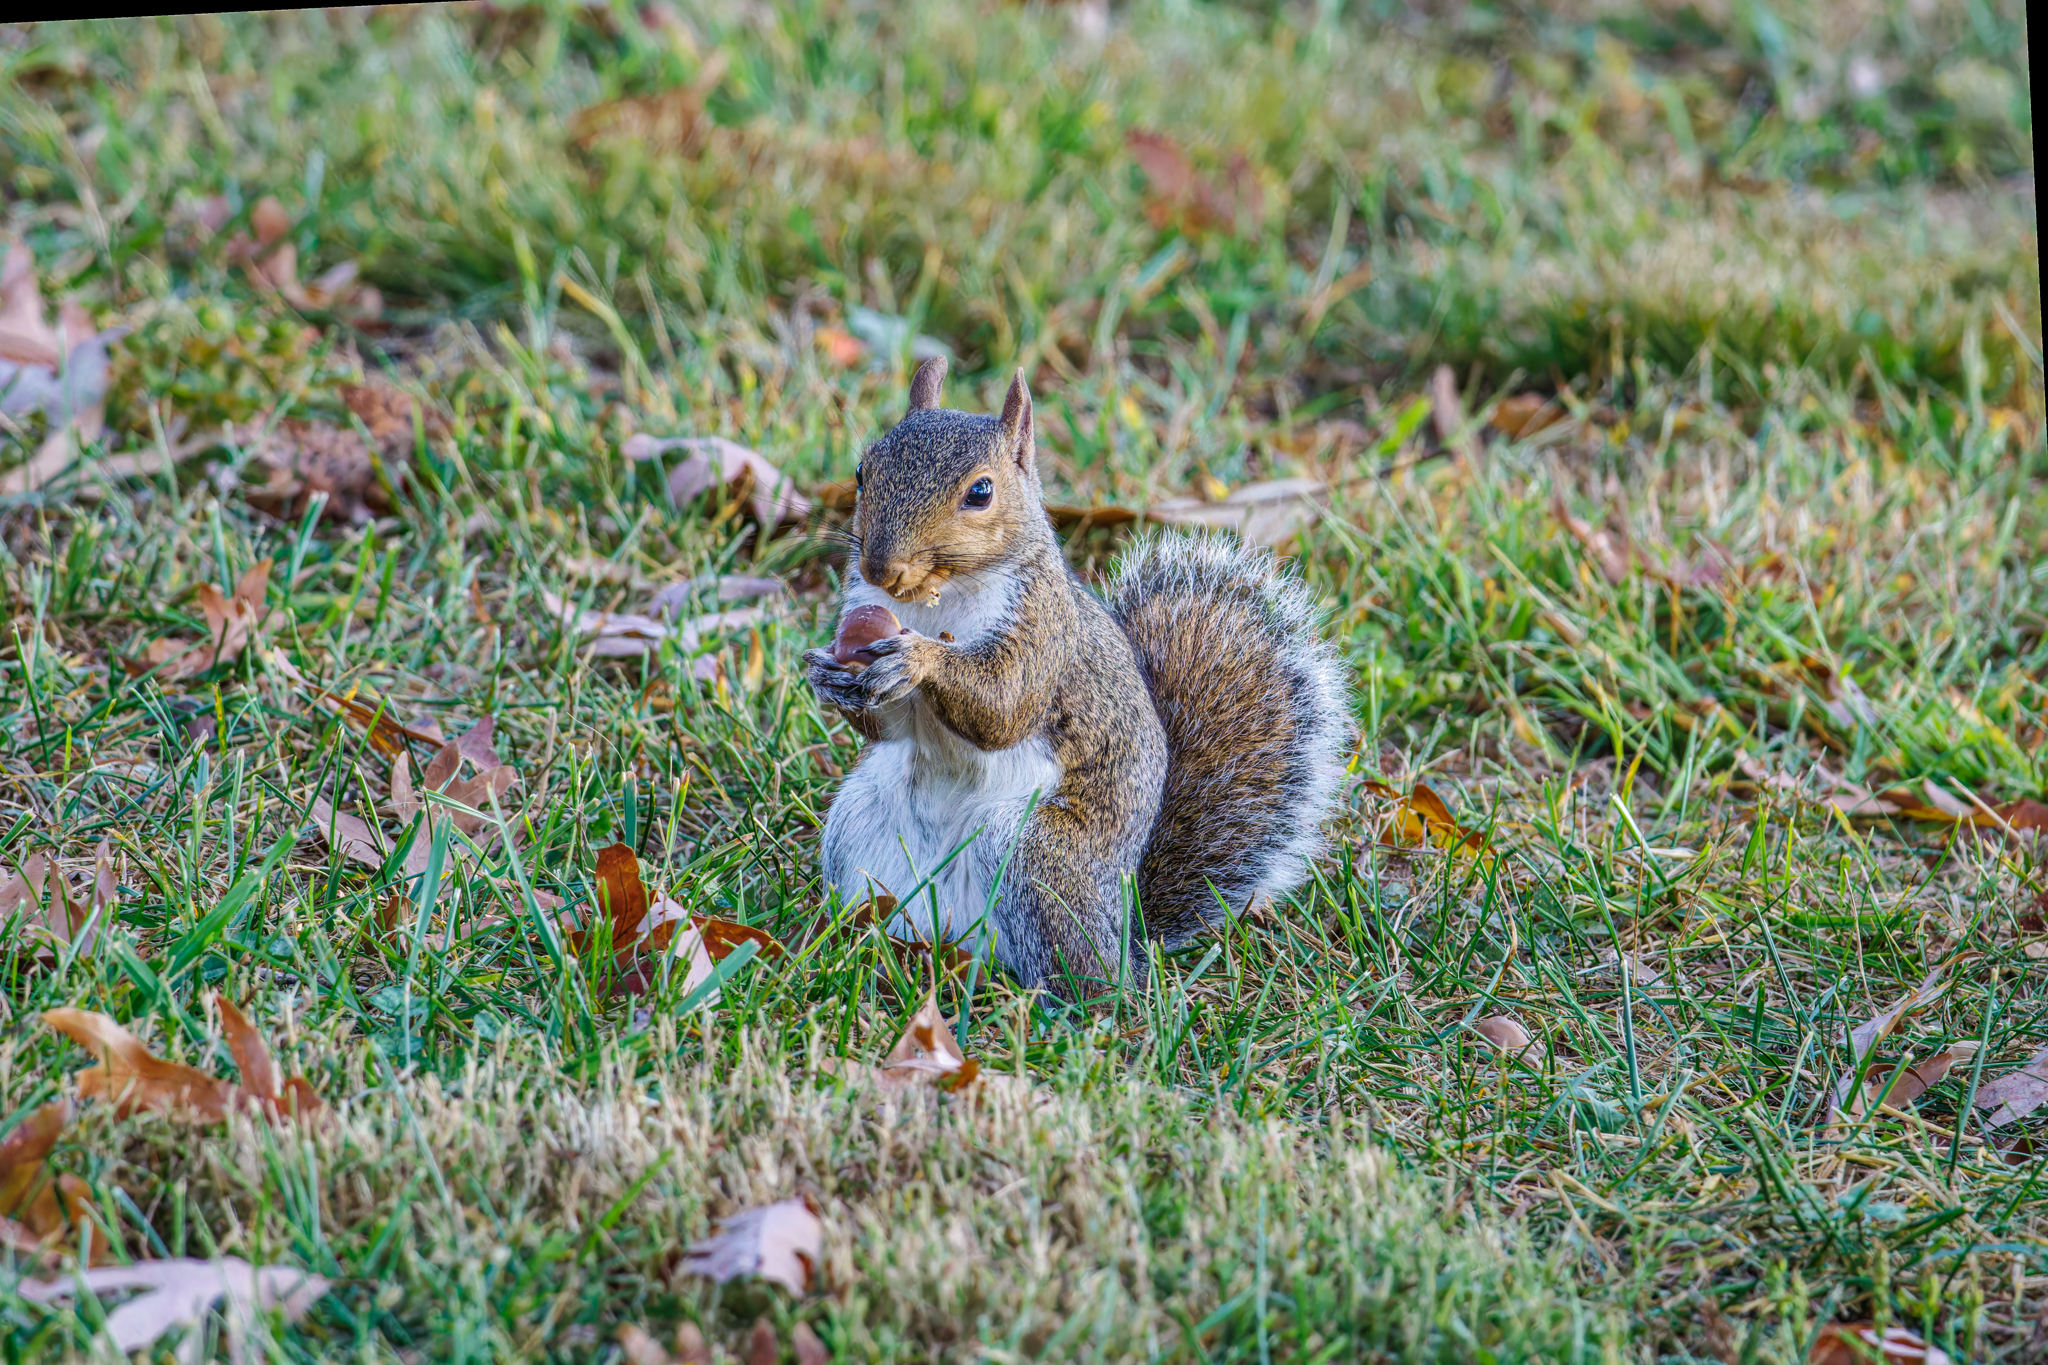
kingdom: Animalia
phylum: Chordata
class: Mammalia
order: Rodentia
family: Sciuridae
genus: Sciurus
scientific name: Sciurus carolinensis
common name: Eastern gray squirrel
